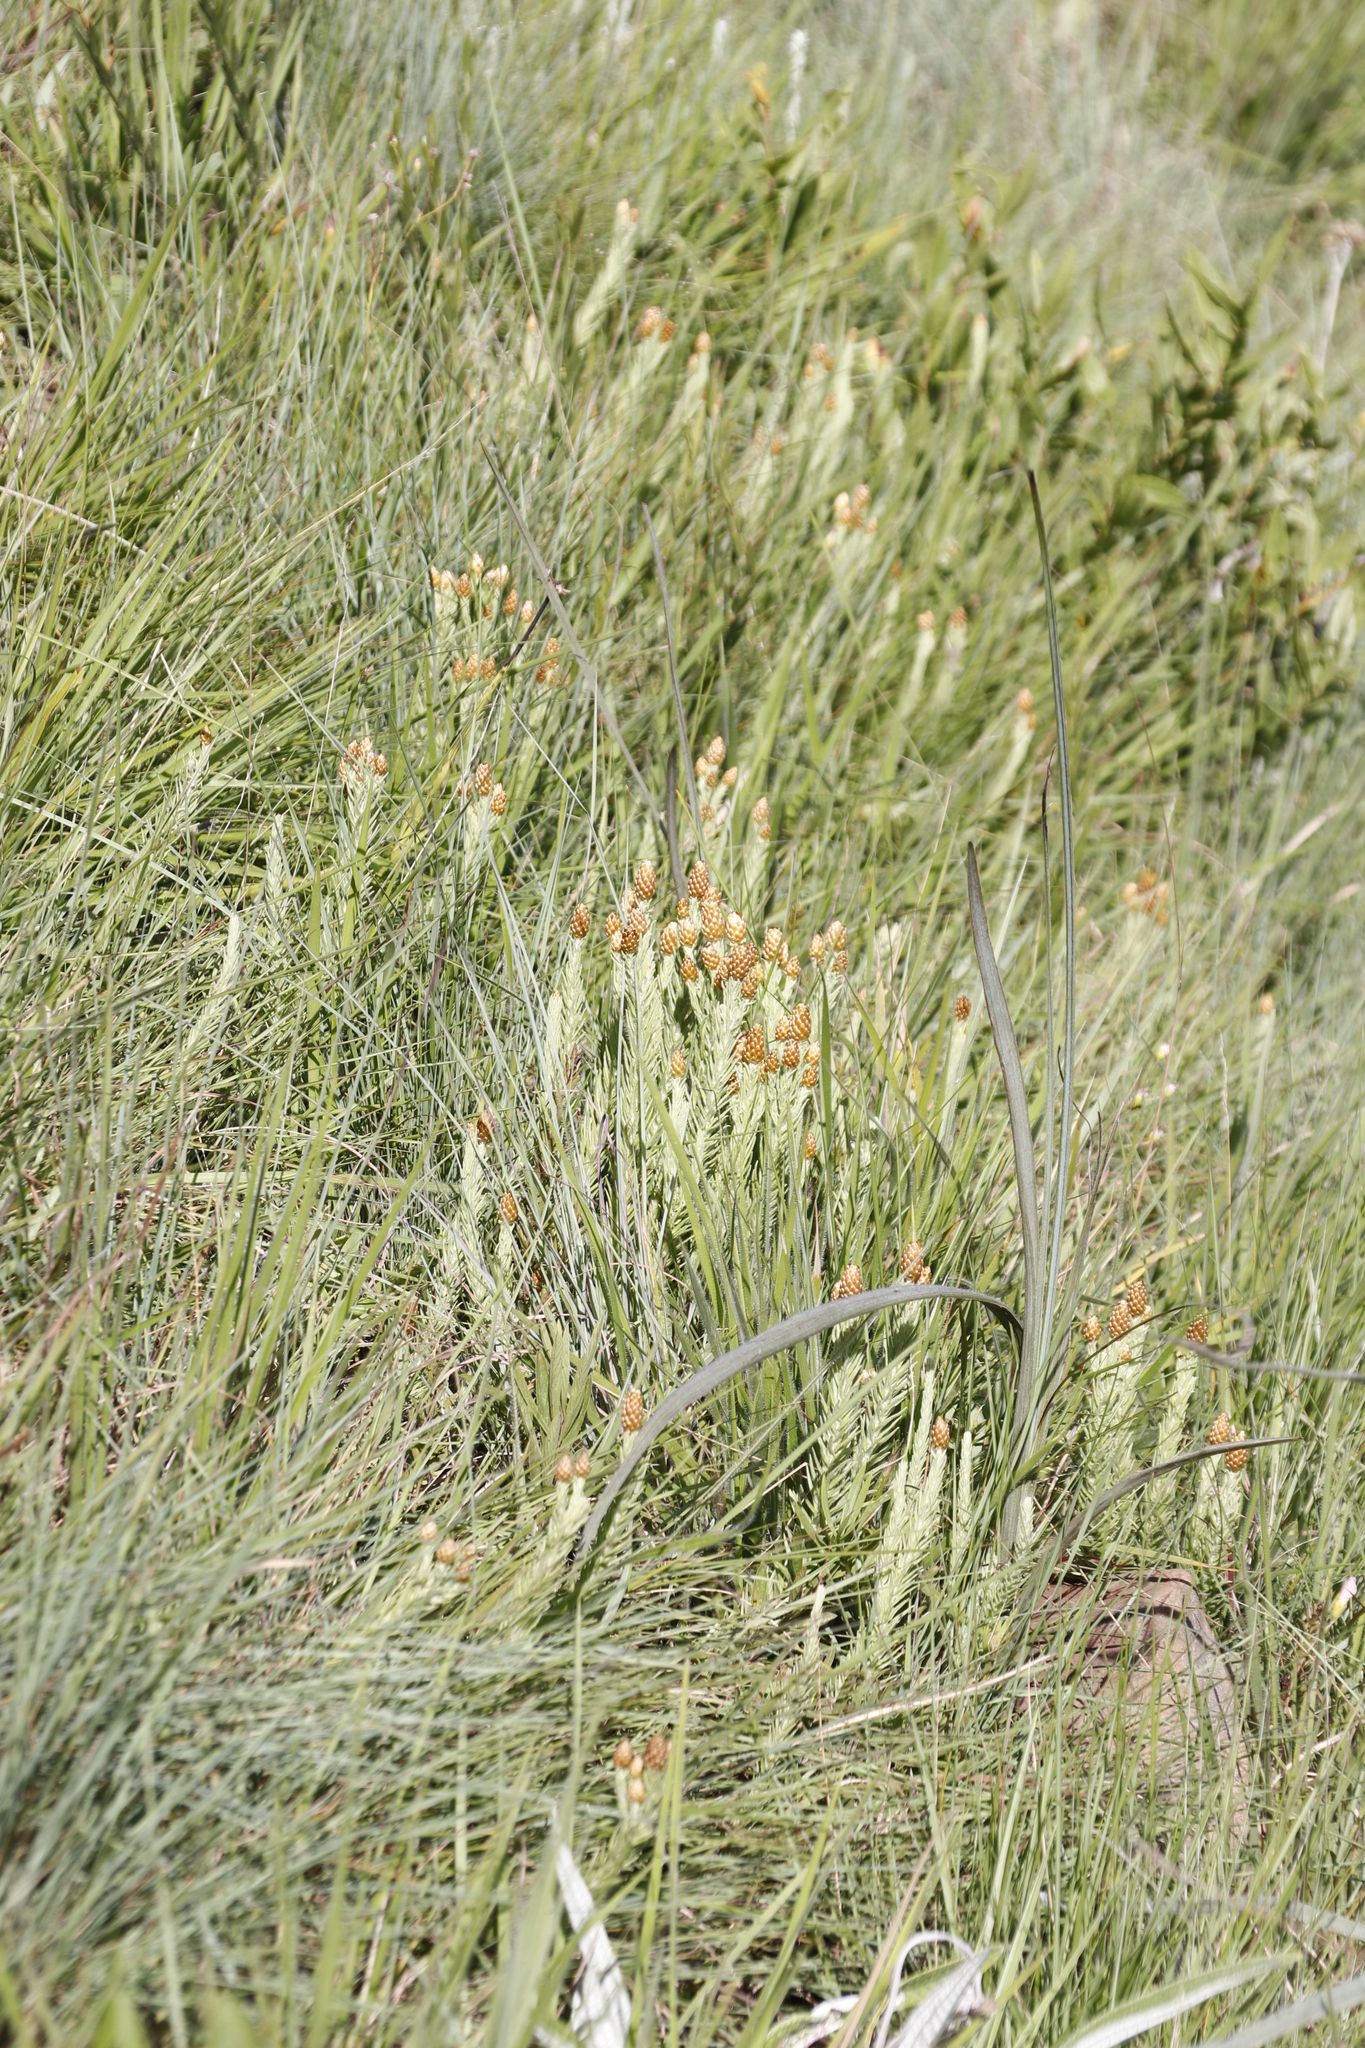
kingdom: Plantae
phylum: Tracheophyta
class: Magnoliopsida
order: Asterales
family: Asteraceae
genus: Helichrysum
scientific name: Helichrysum herbaceum
